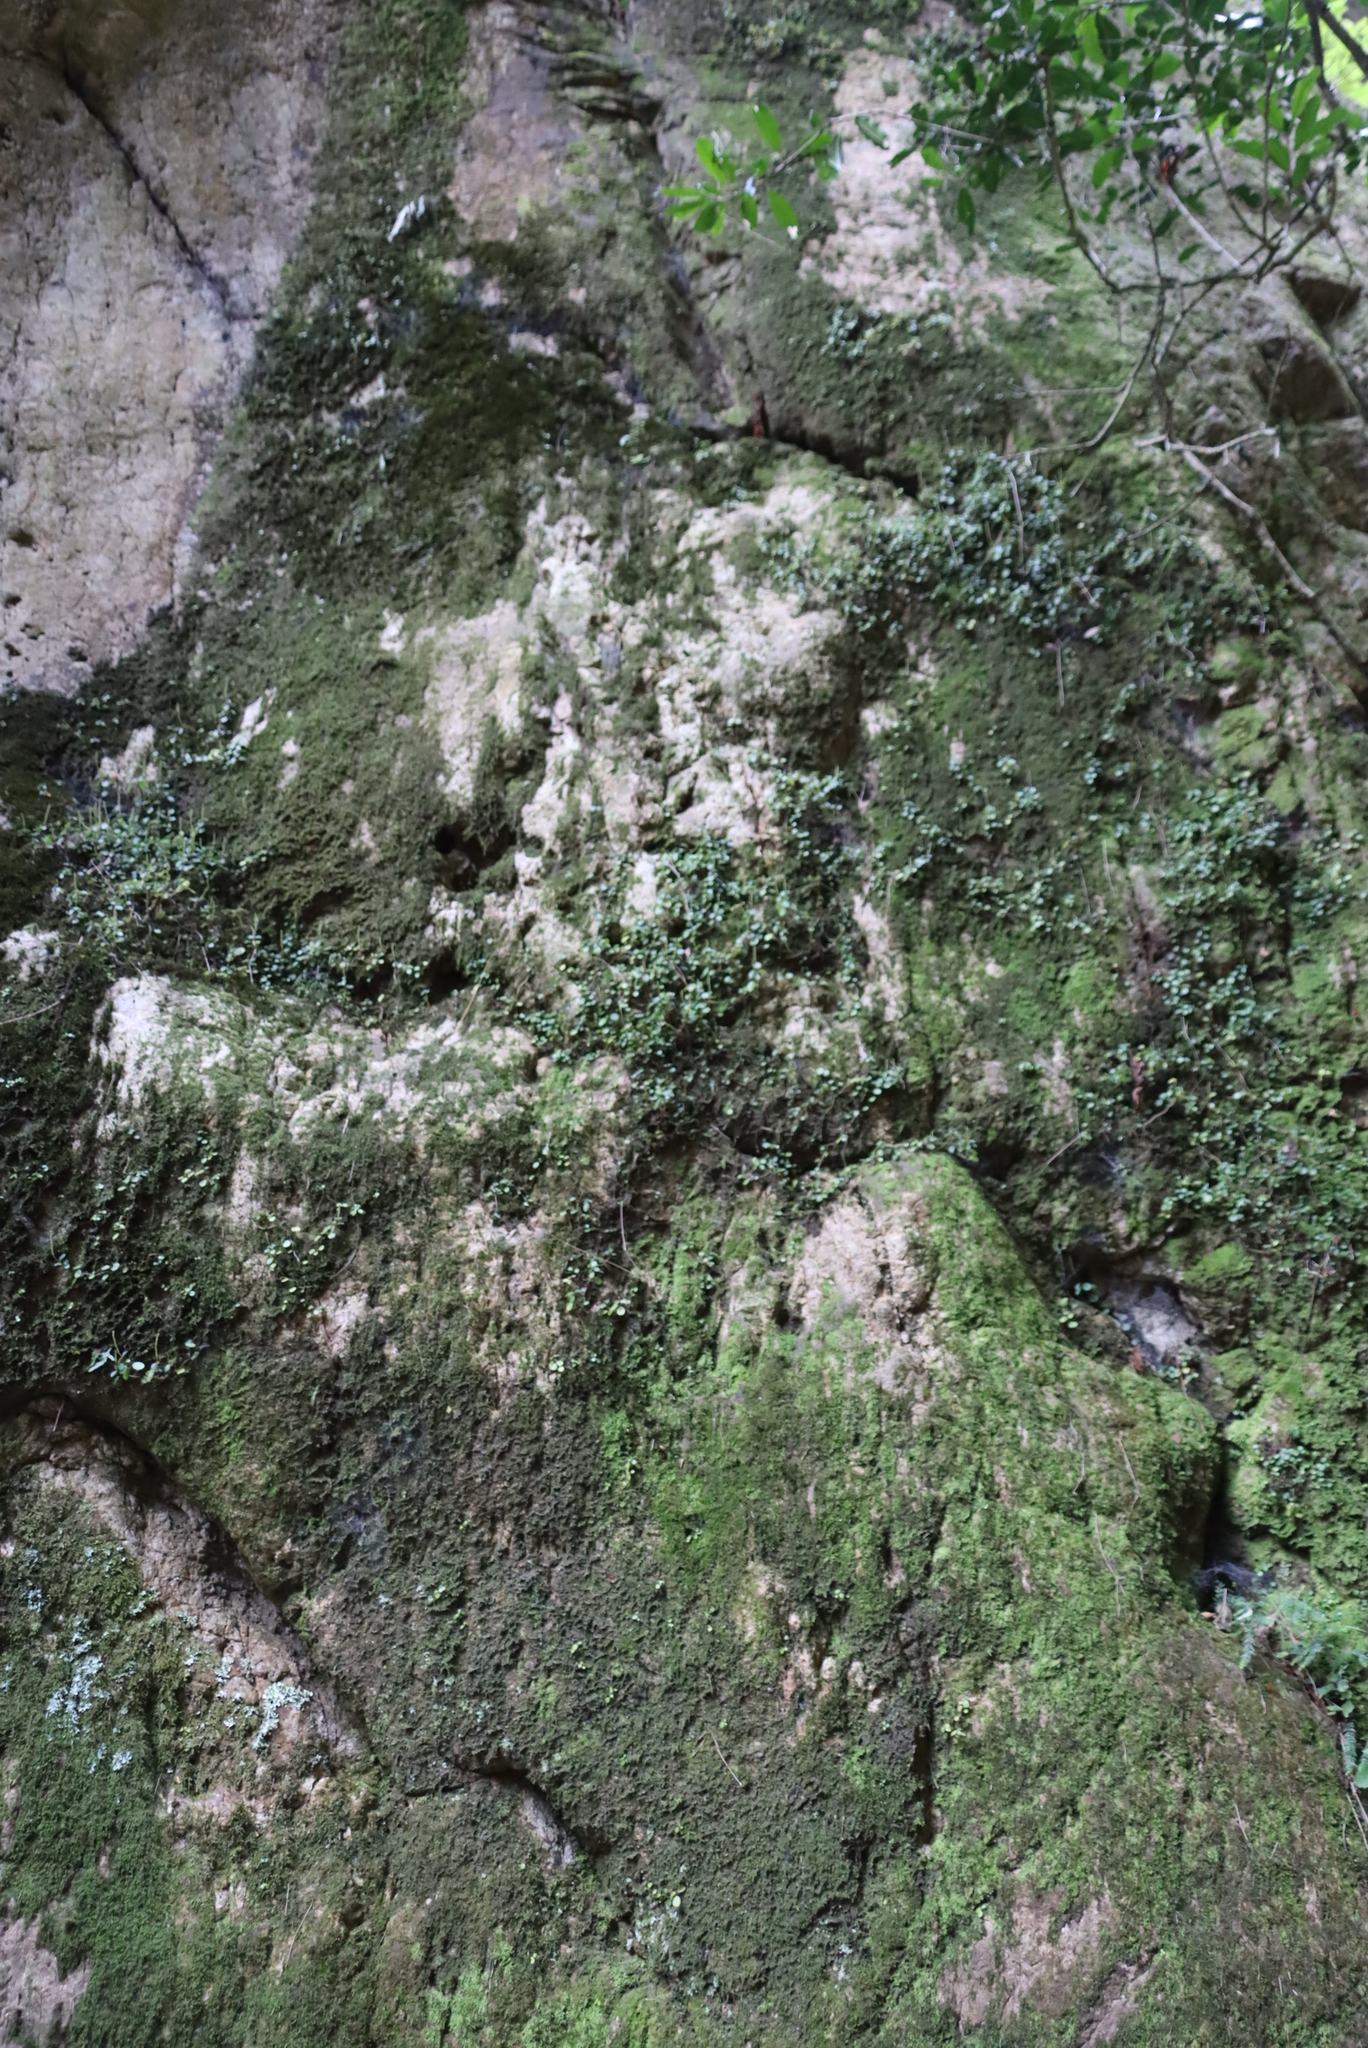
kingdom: Plantae
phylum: Tracheophyta
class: Magnoliopsida
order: Piperales
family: Piperaceae
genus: Peperomia
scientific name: Peperomia retusa
